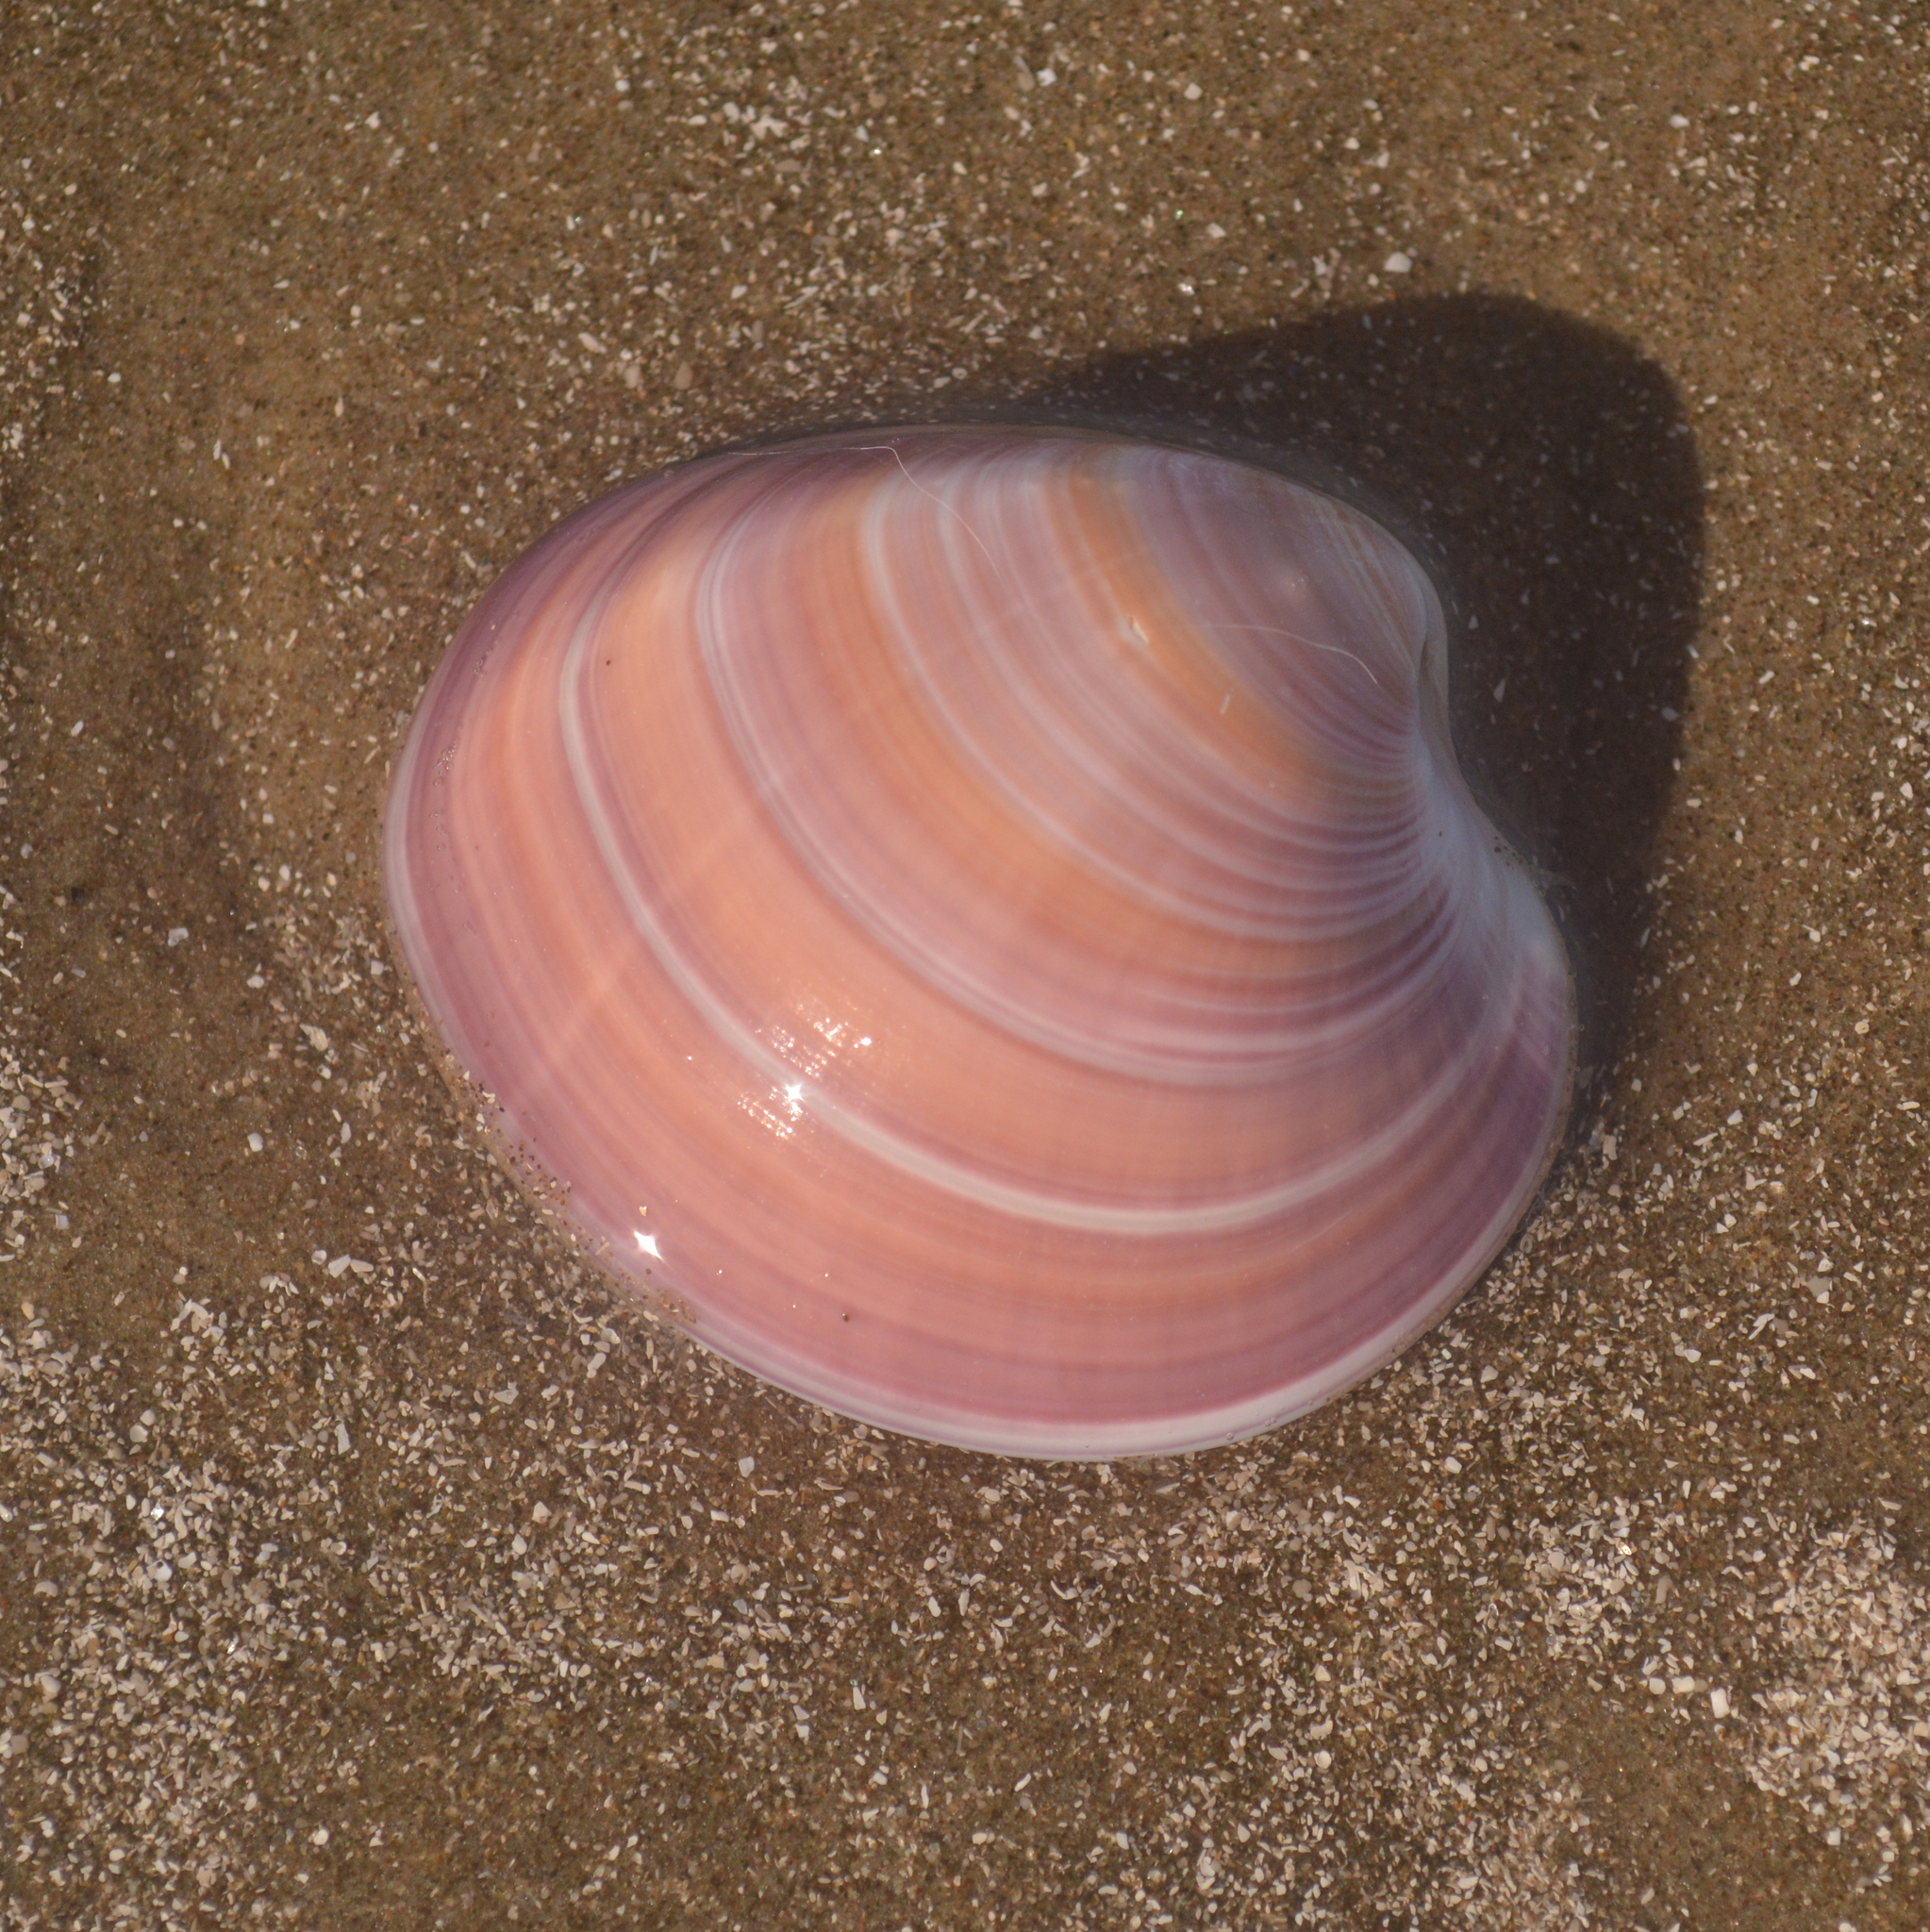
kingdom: Animalia
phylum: Mollusca
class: Bivalvia
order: Venerida
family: Veneridae
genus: Eucallista
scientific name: Eucallista purpurata
